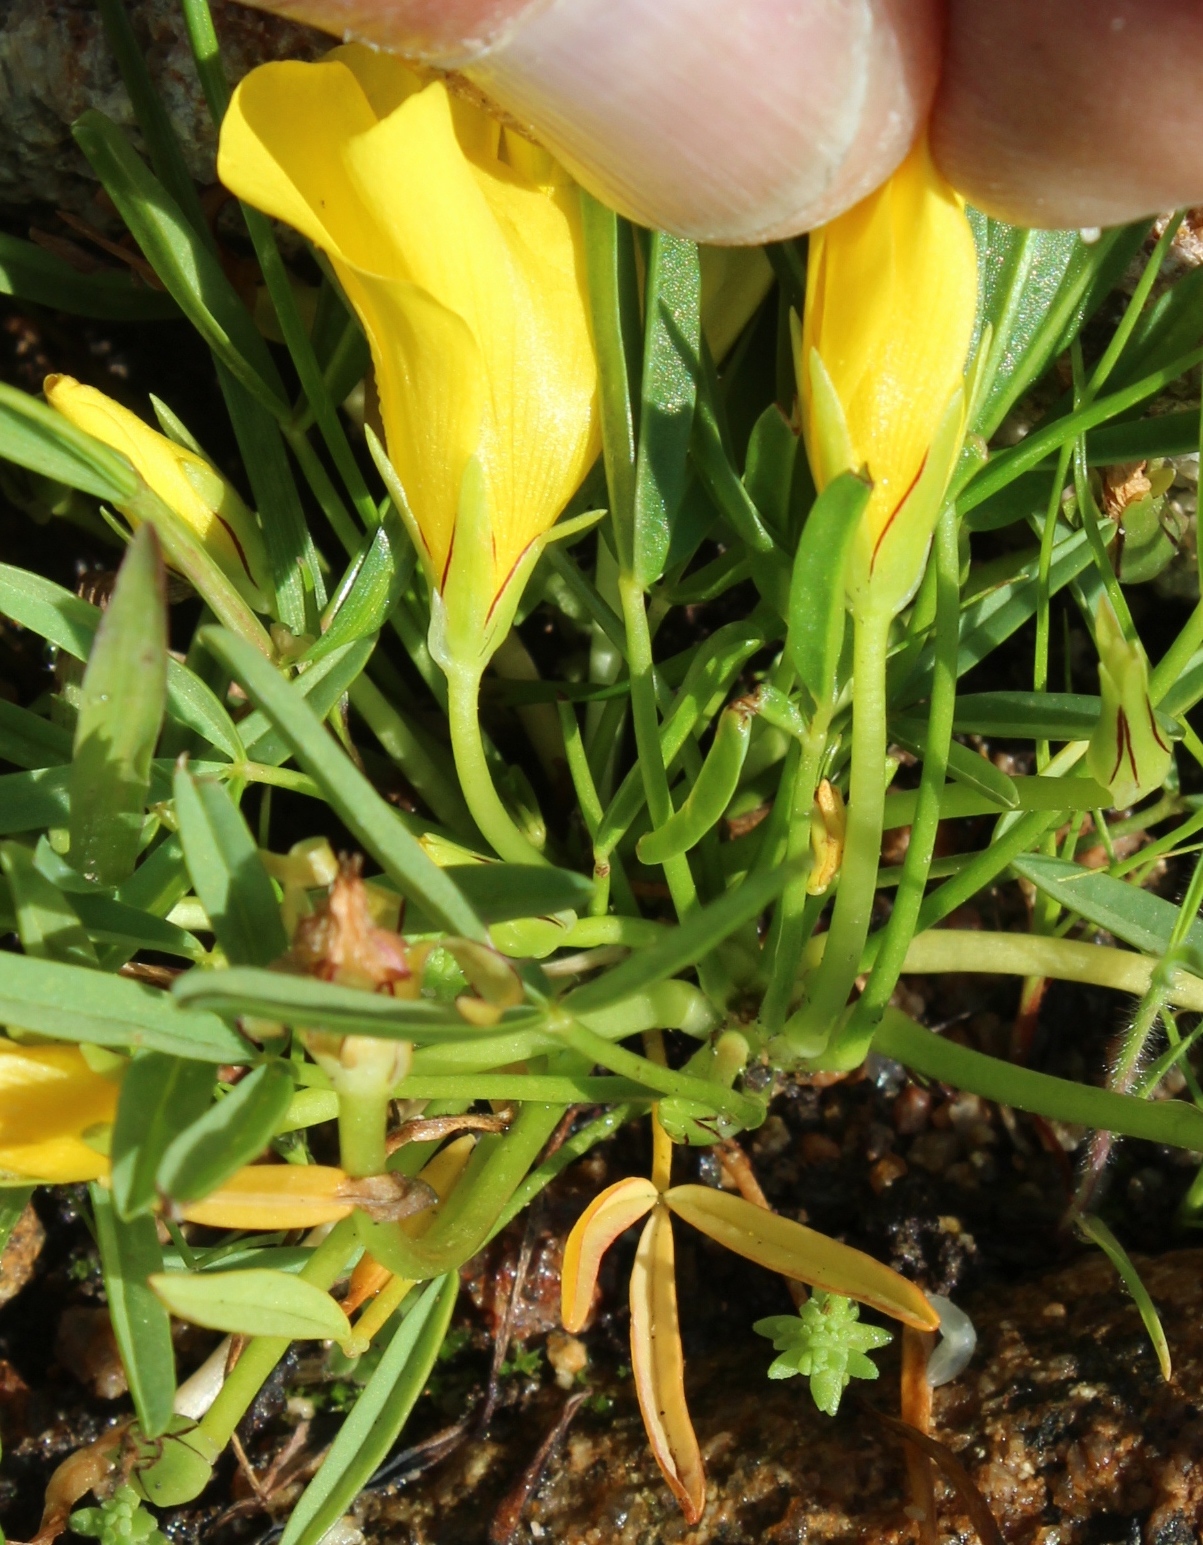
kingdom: Plantae
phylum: Tracheophyta
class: Magnoliopsida
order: Oxalidales
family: Oxalidaceae
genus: Oxalis
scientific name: Oxalis namaquana
